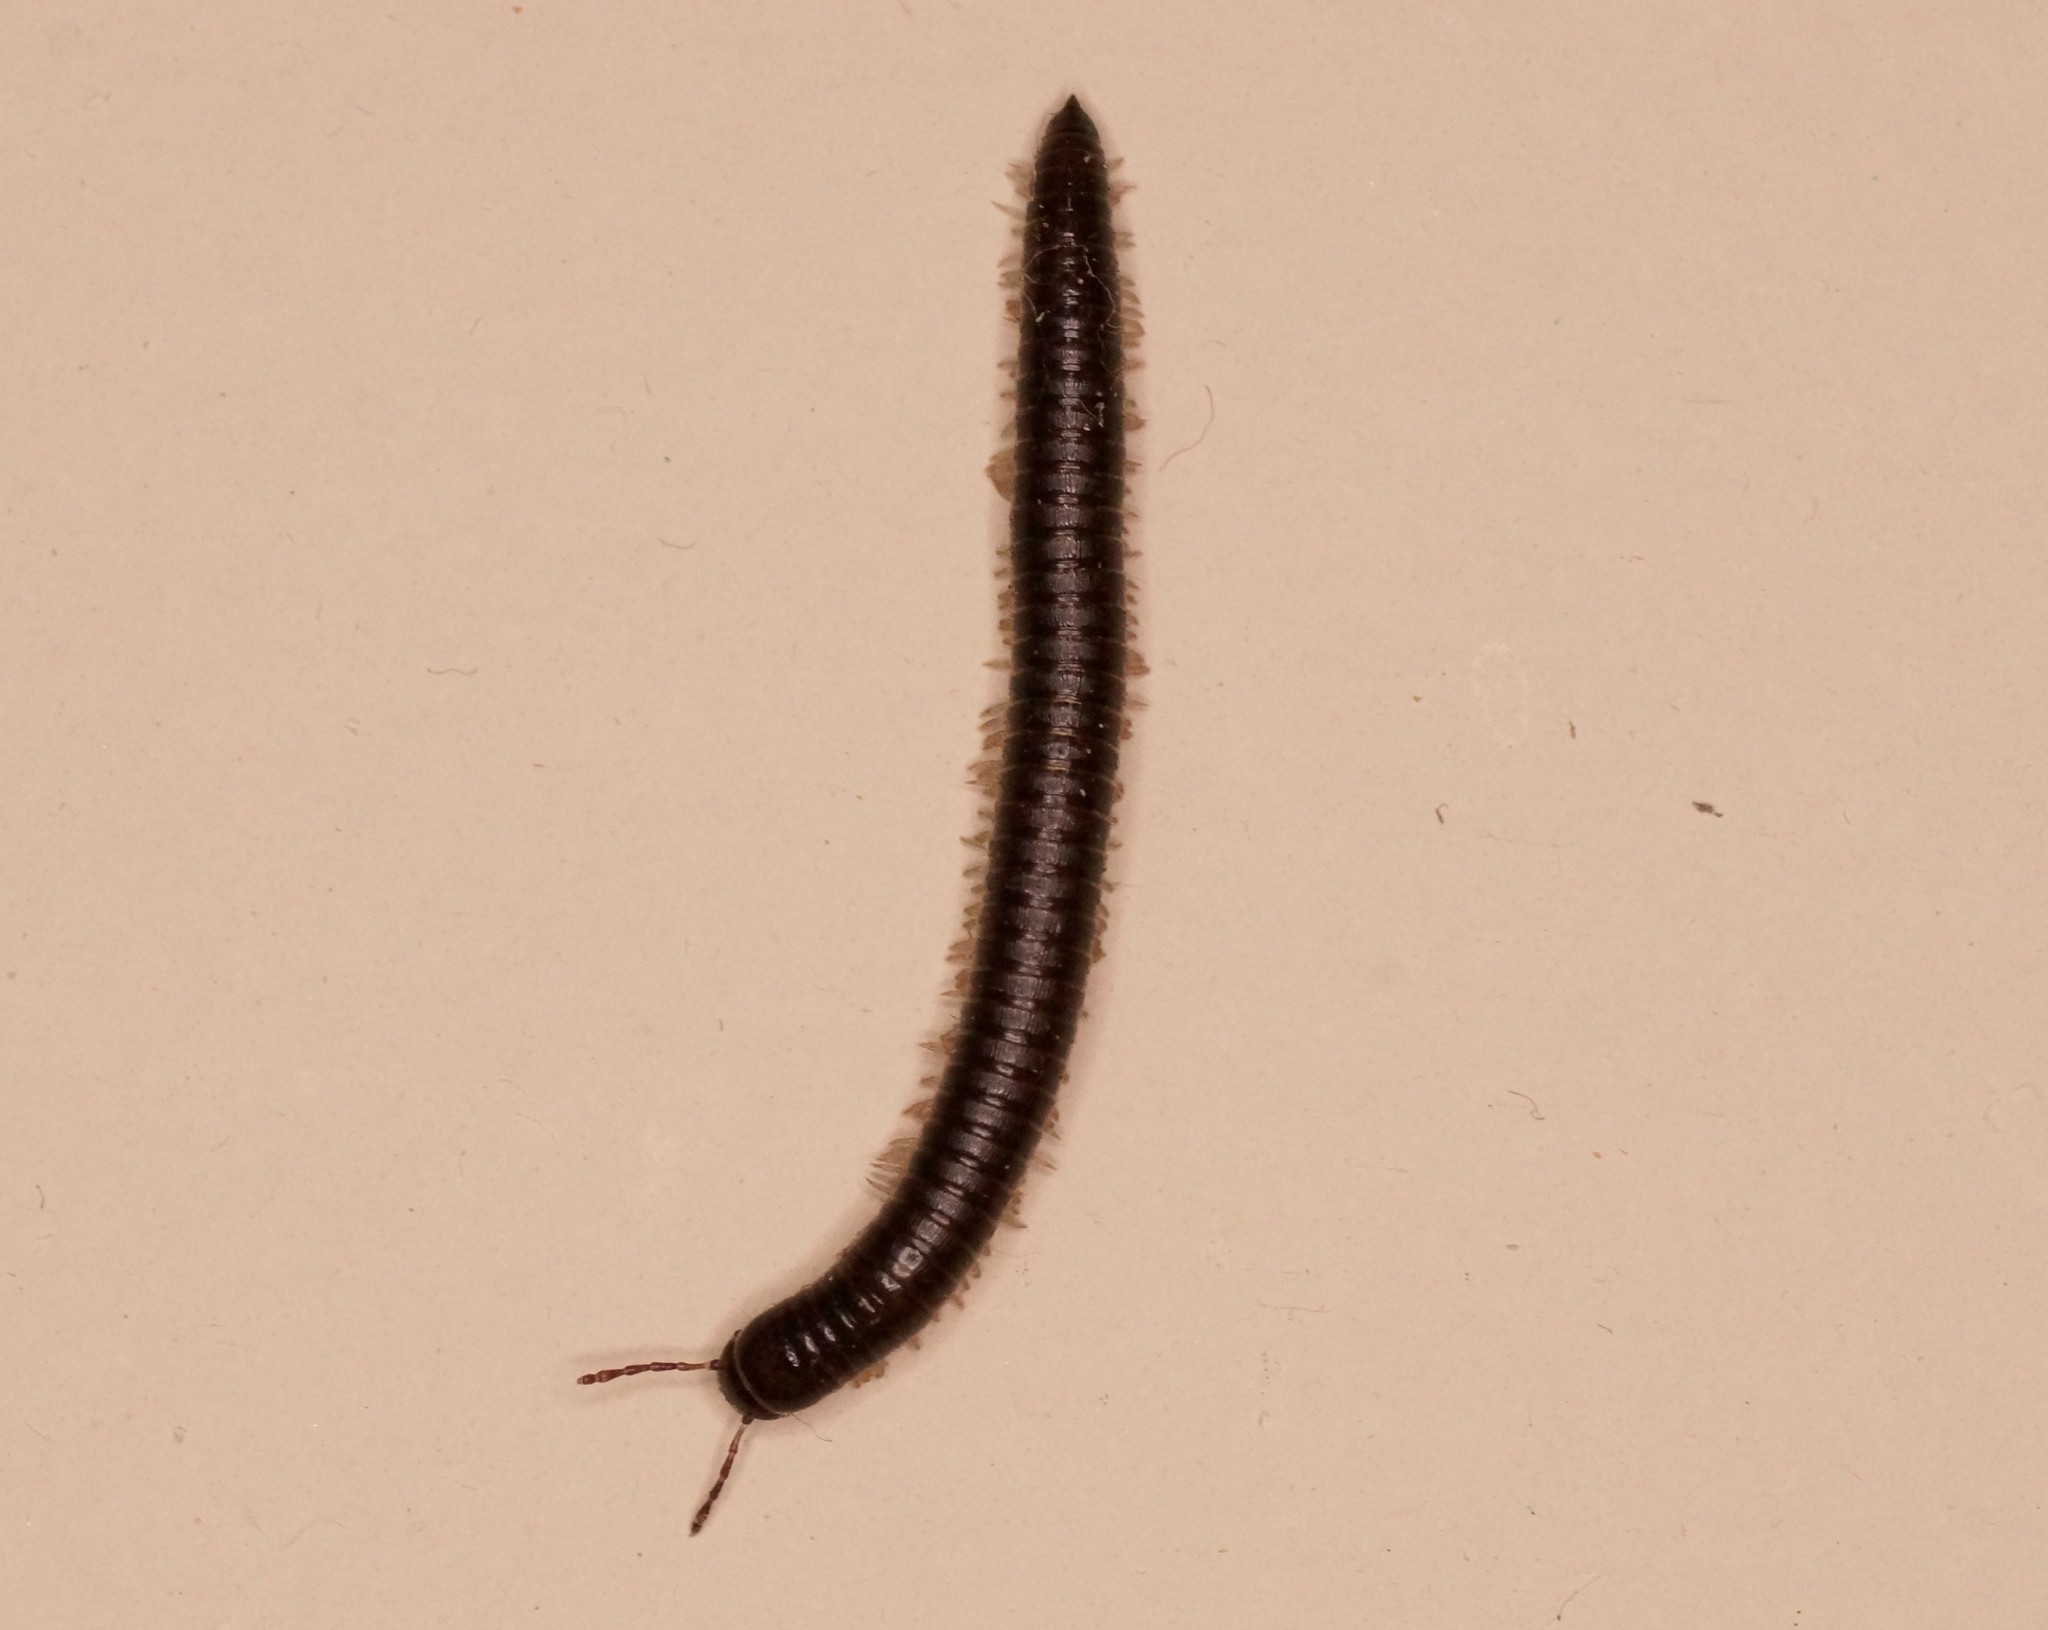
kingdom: Animalia
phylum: Arthropoda
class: Diplopoda
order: Julida
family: Julidae
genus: Ommatoiulus
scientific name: Ommatoiulus moreleti
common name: Portuguese millipede
